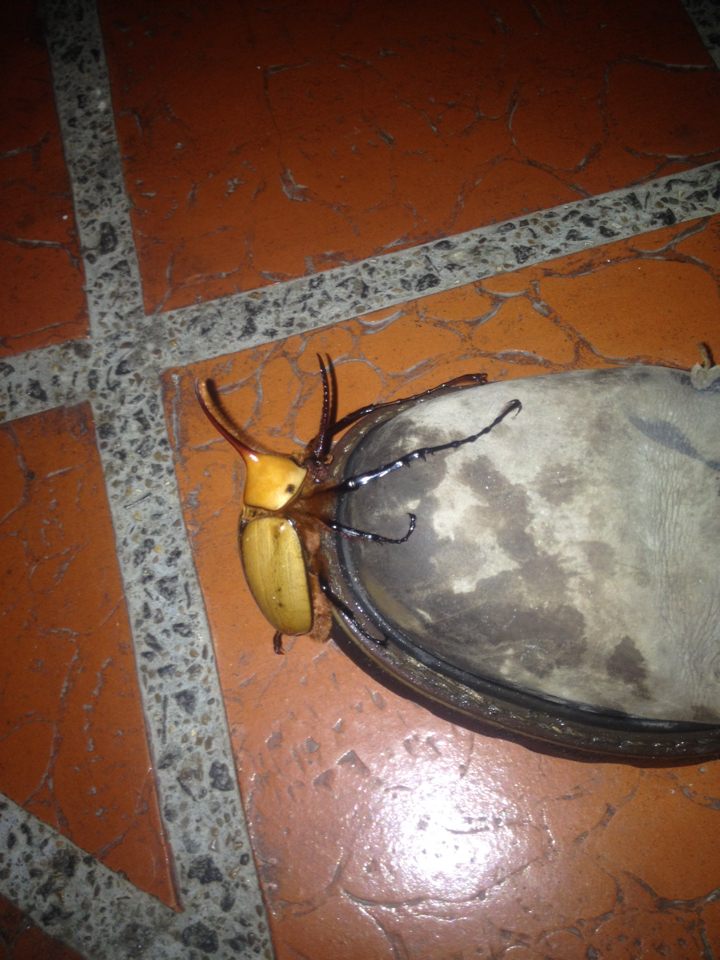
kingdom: Animalia
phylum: Arthropoda
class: Insecta
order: Coleoptera
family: Scarabaeidae
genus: Golofa
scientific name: Golofa porteri
